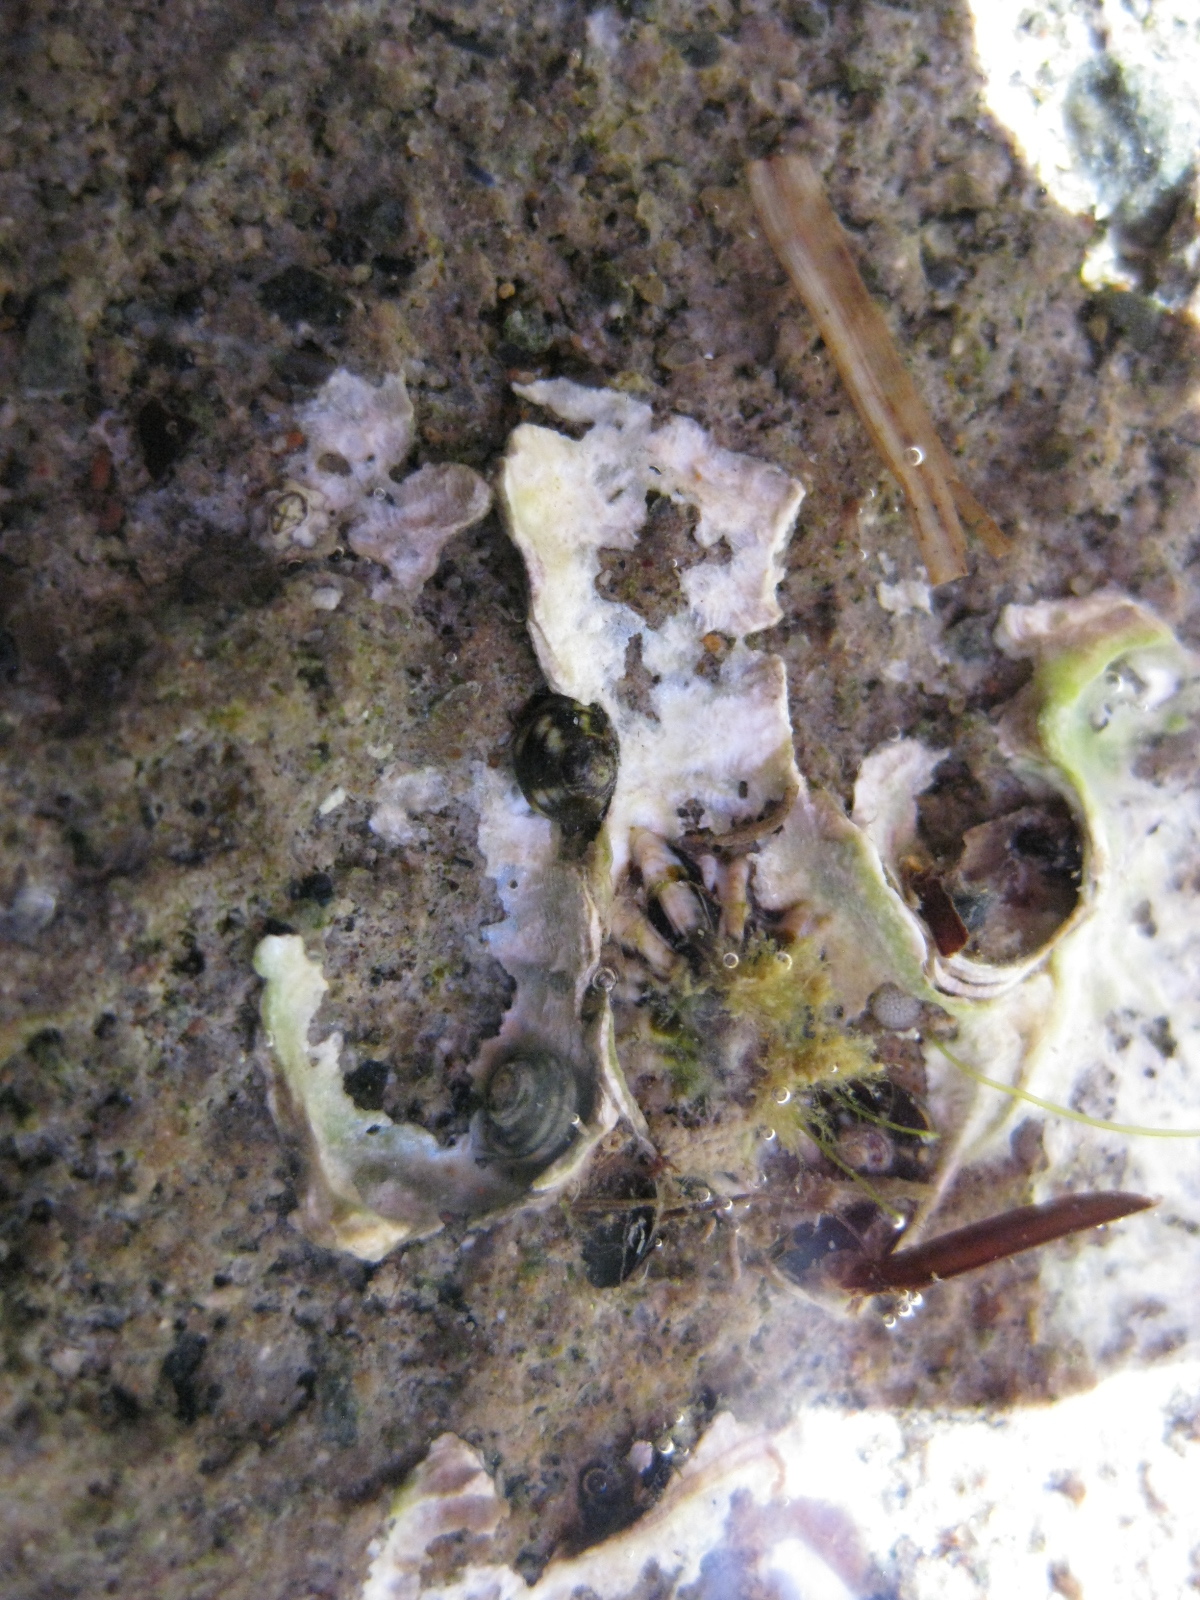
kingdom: Animalia
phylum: Mollusca
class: Gastropoda
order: Littorinimorpha
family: Littorinidae
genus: Risellopsis
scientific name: Risellopsis varia
